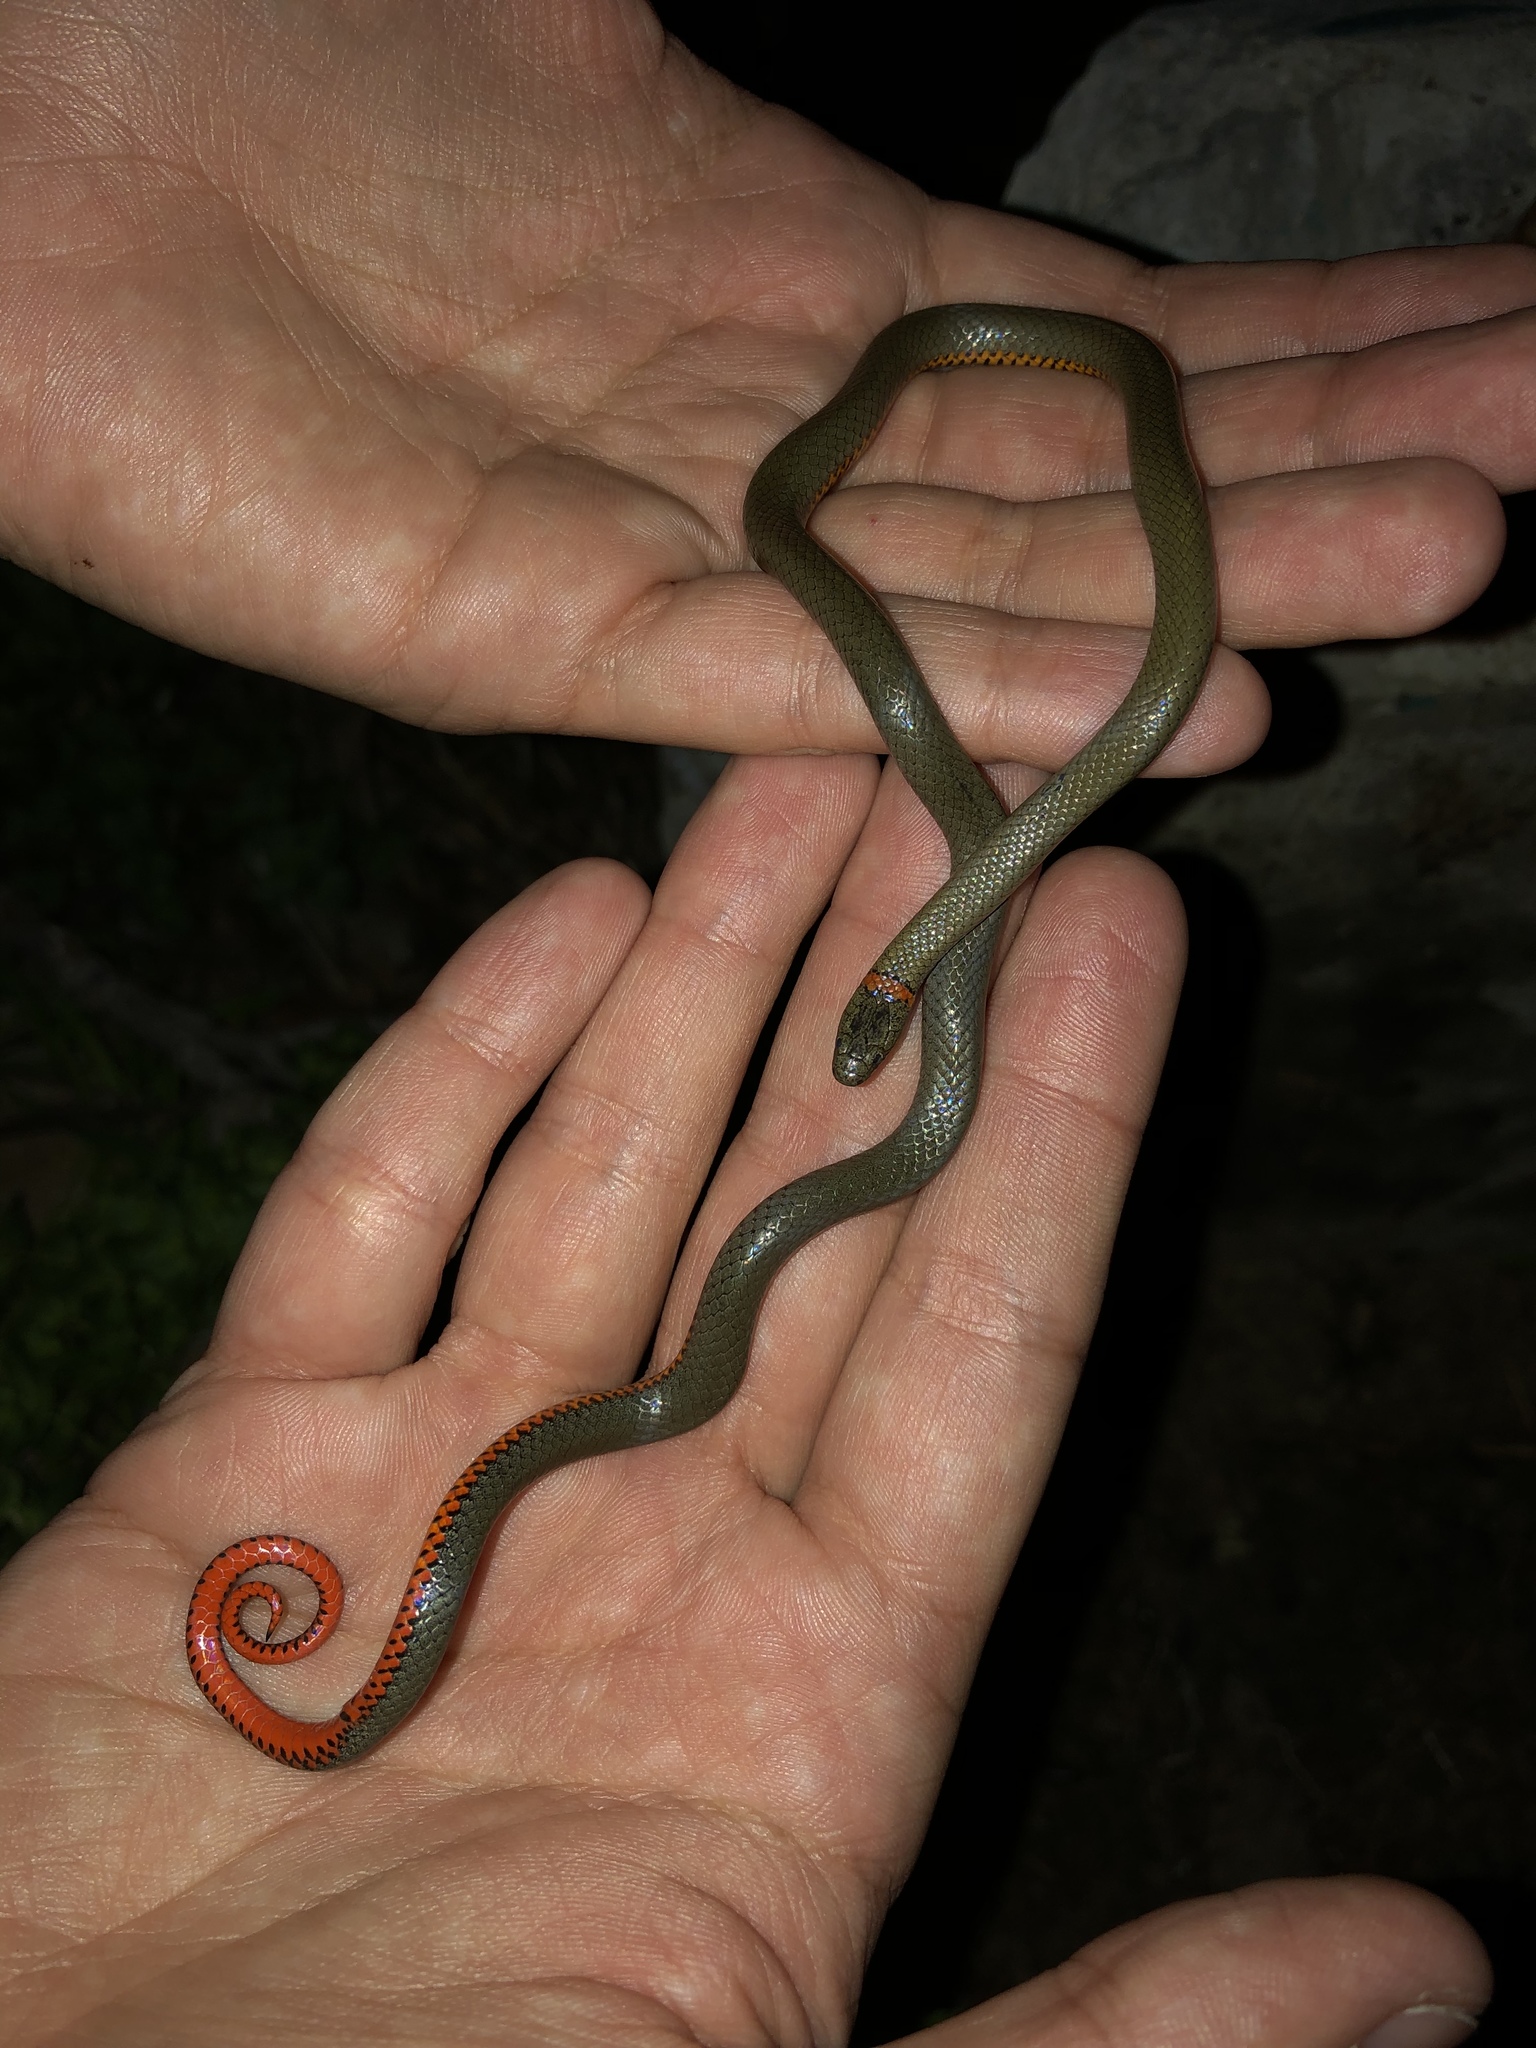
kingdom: Animalia
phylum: Chordata
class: Squamata
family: Colubridae
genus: Diadophis
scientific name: Diadophis punctatus
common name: Ringneck snake
